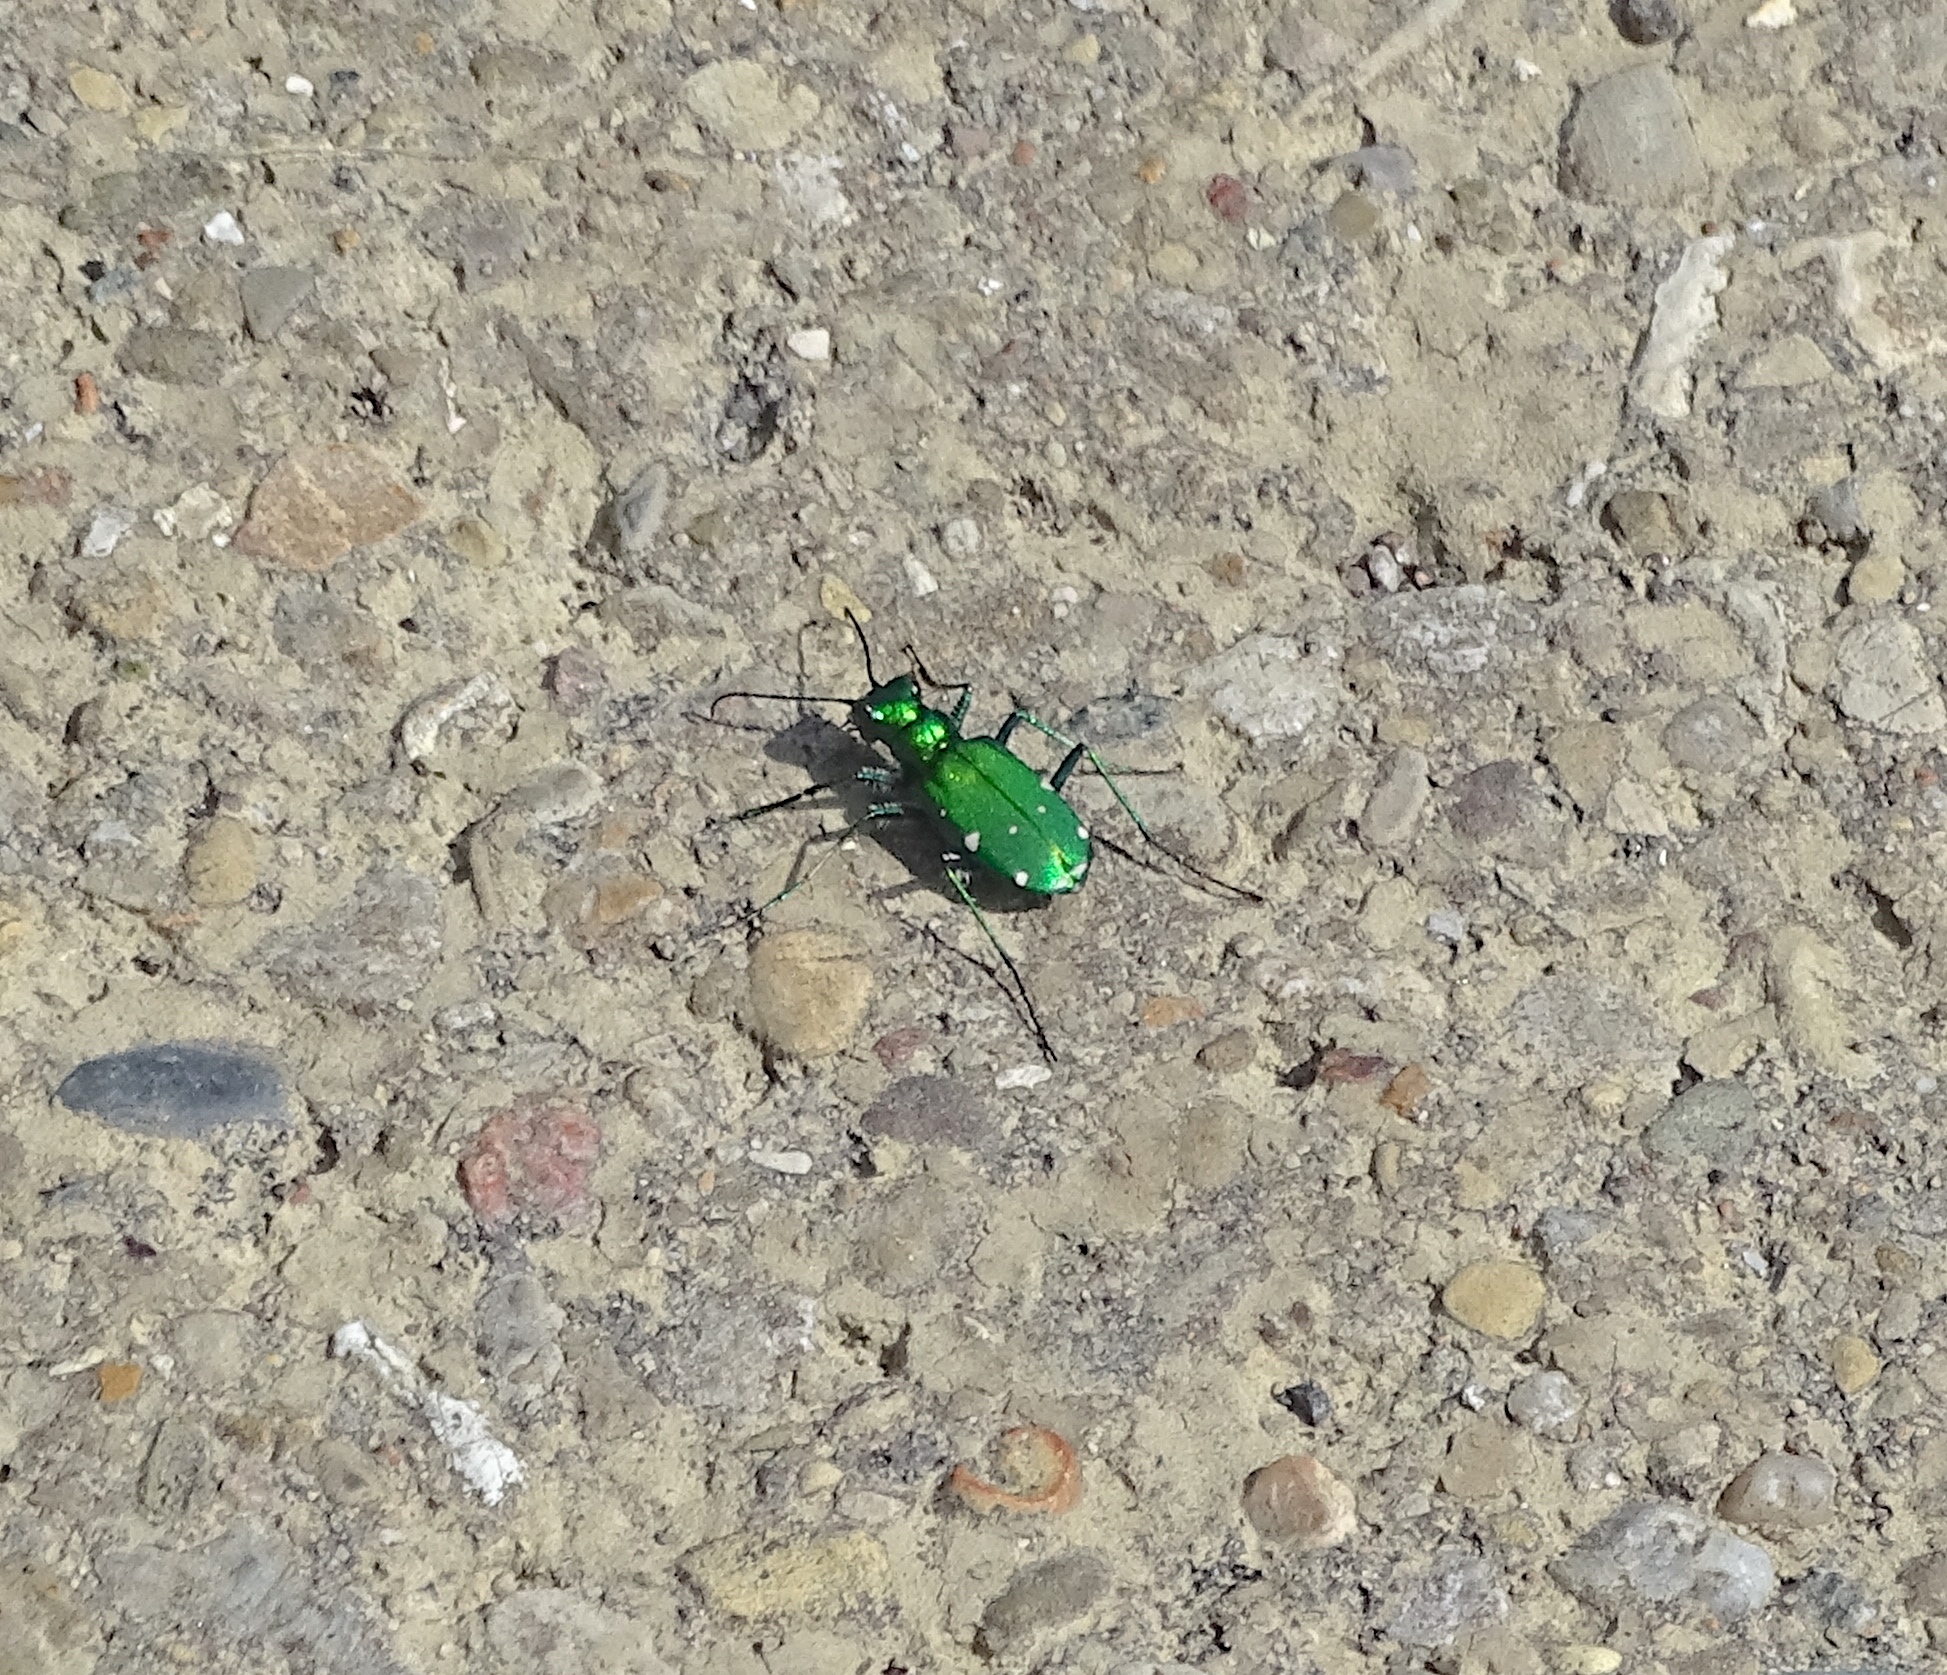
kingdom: Animalia
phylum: Arthropoda
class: Insecta
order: Coleoptera
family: Carabidae
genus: Cicindela
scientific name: Cicindela sexguttata
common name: Six-spotted tiger beetle
